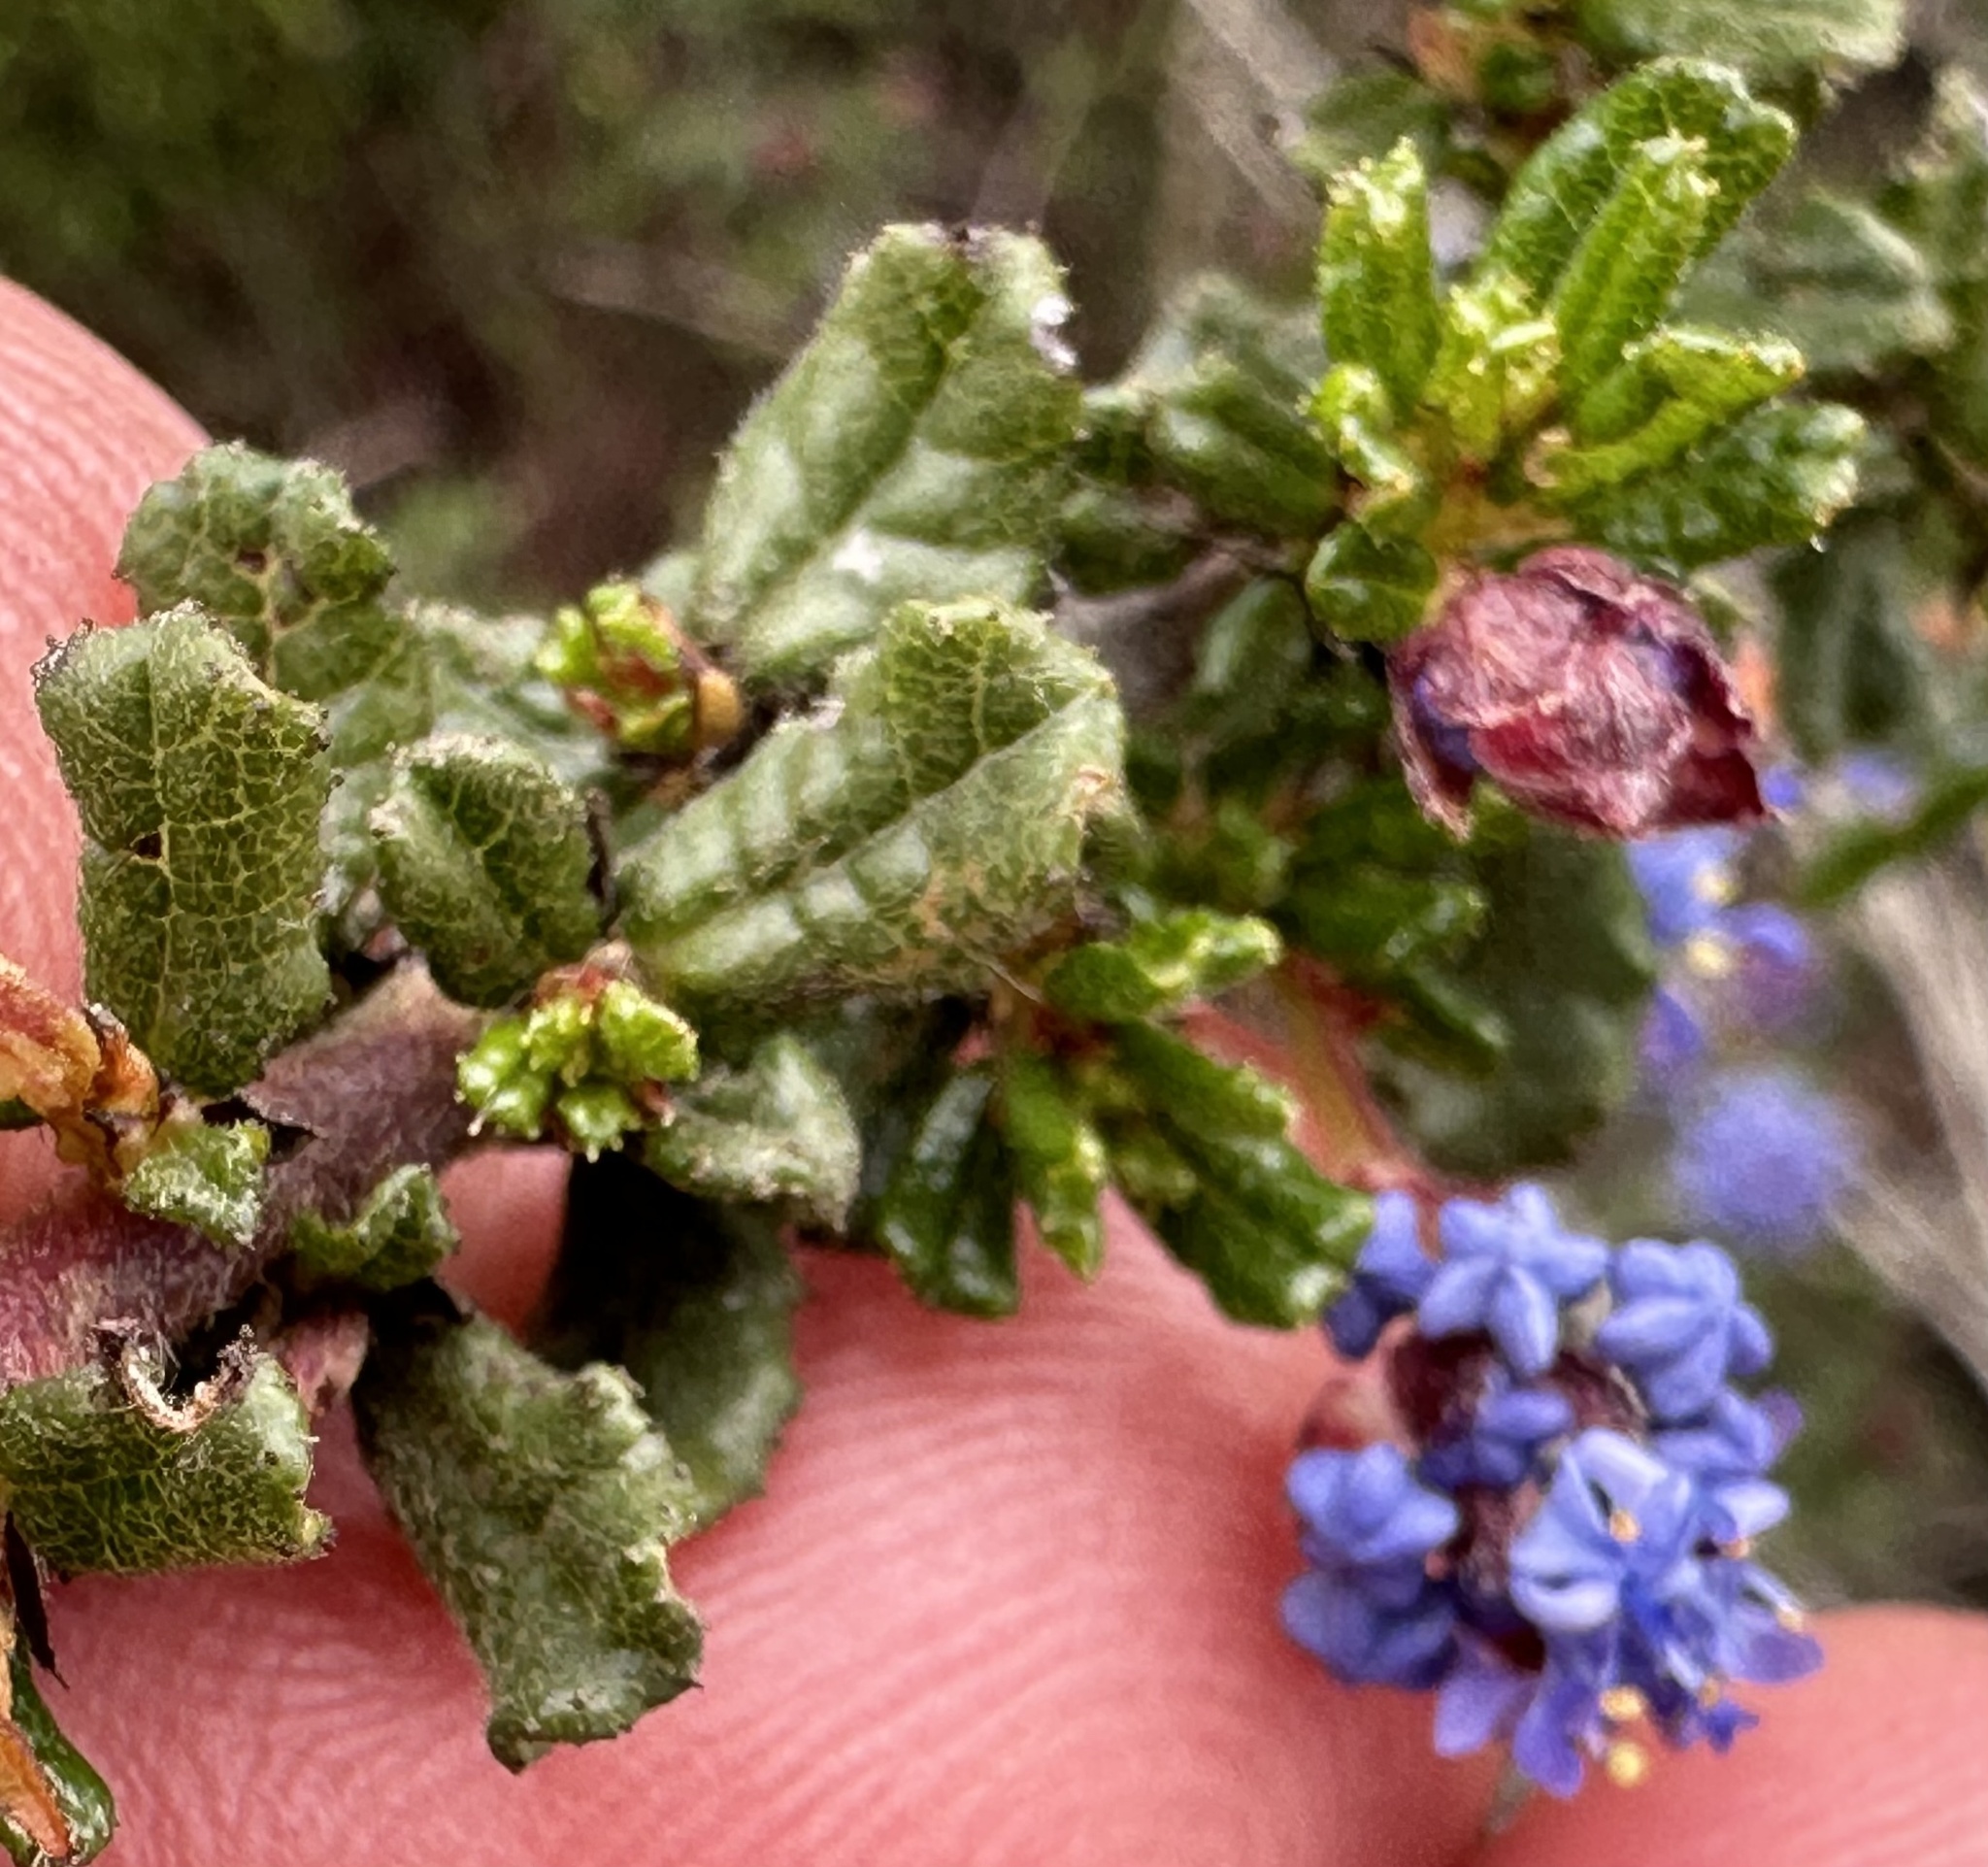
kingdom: Plantae
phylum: Tracheophyta
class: Magnoliopsida
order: Rosales
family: Rhamnaceae
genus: Ceanothus
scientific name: Ceanothus dentatus
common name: Crop-leaf ceanothus
